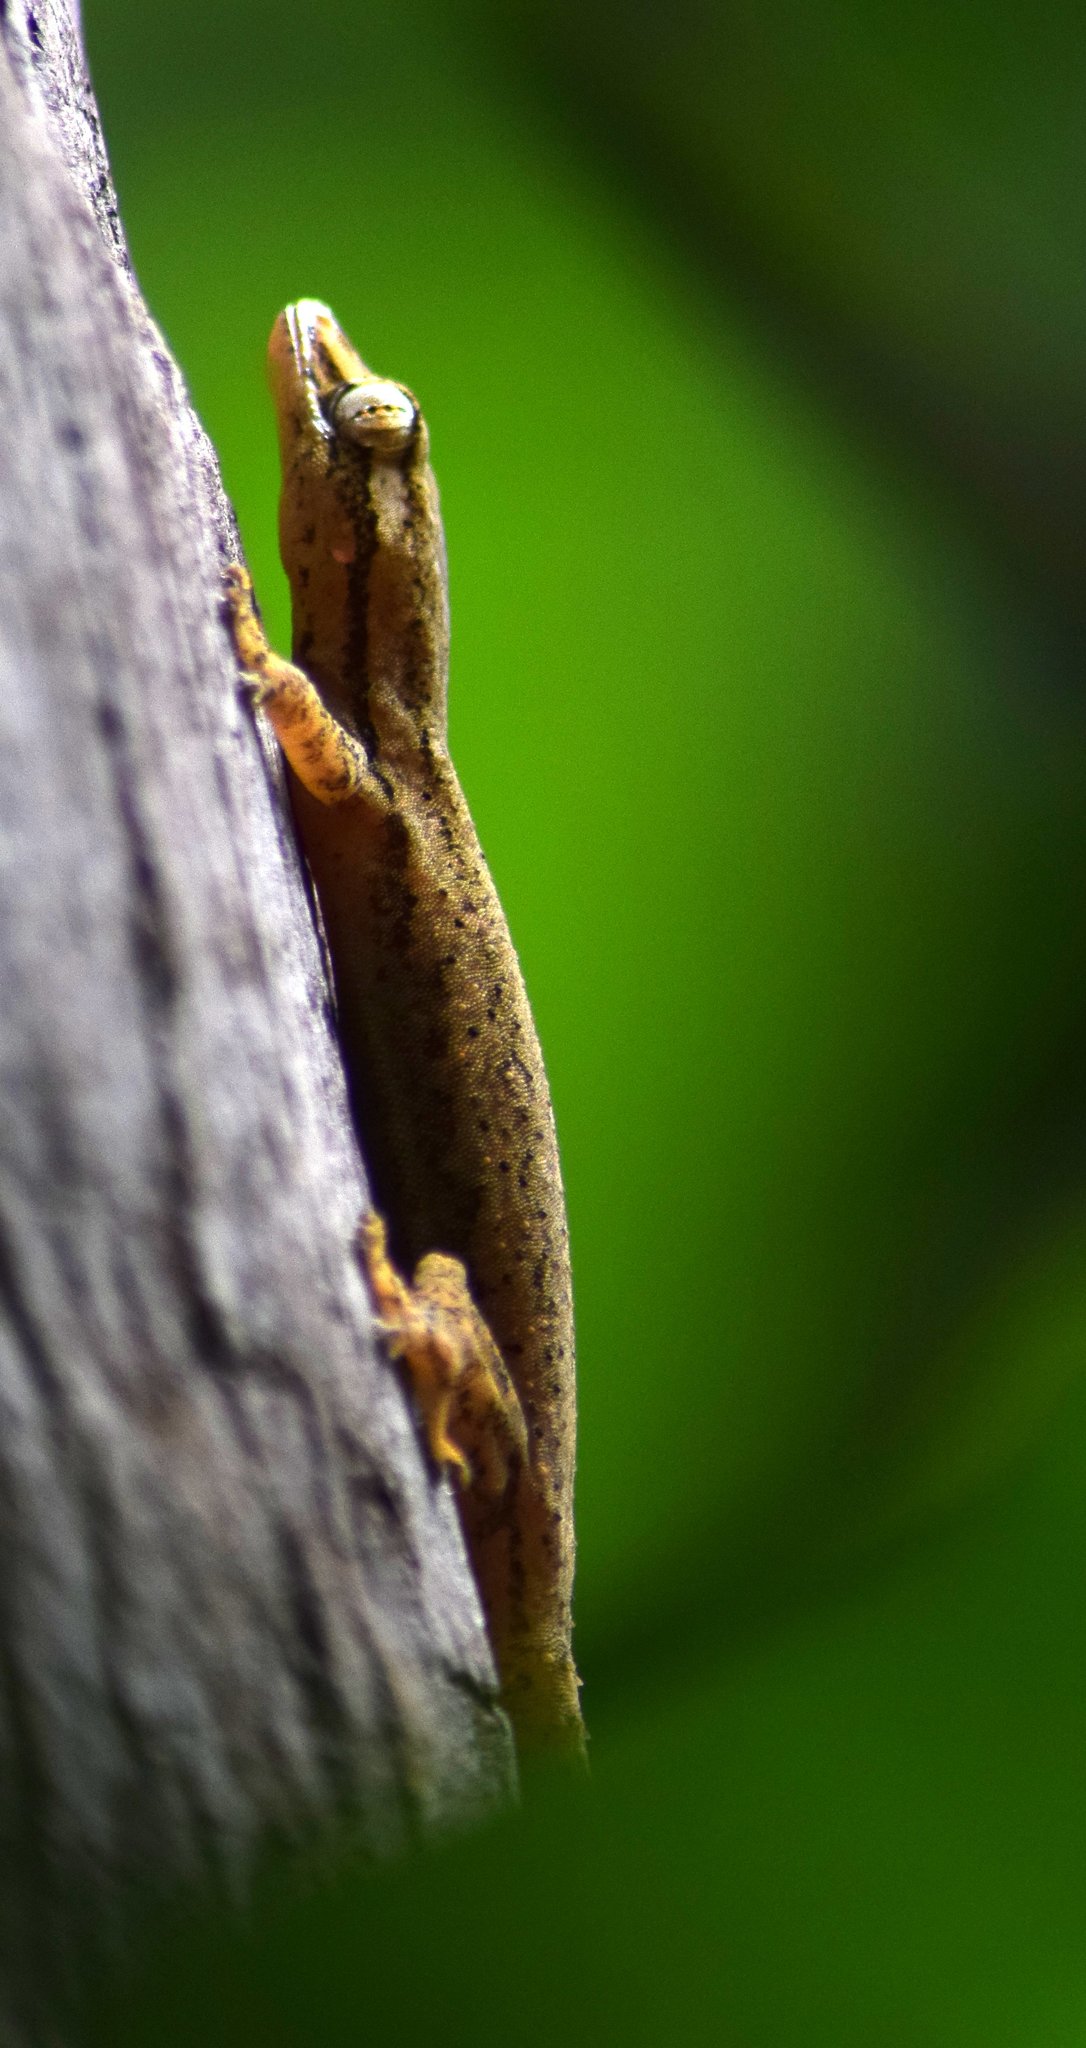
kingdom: Animalia
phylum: Chordata
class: Squamata
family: Gekkonidae
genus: Hemidactylus
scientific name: Hemidactylus frenatus
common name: Common house gecko
